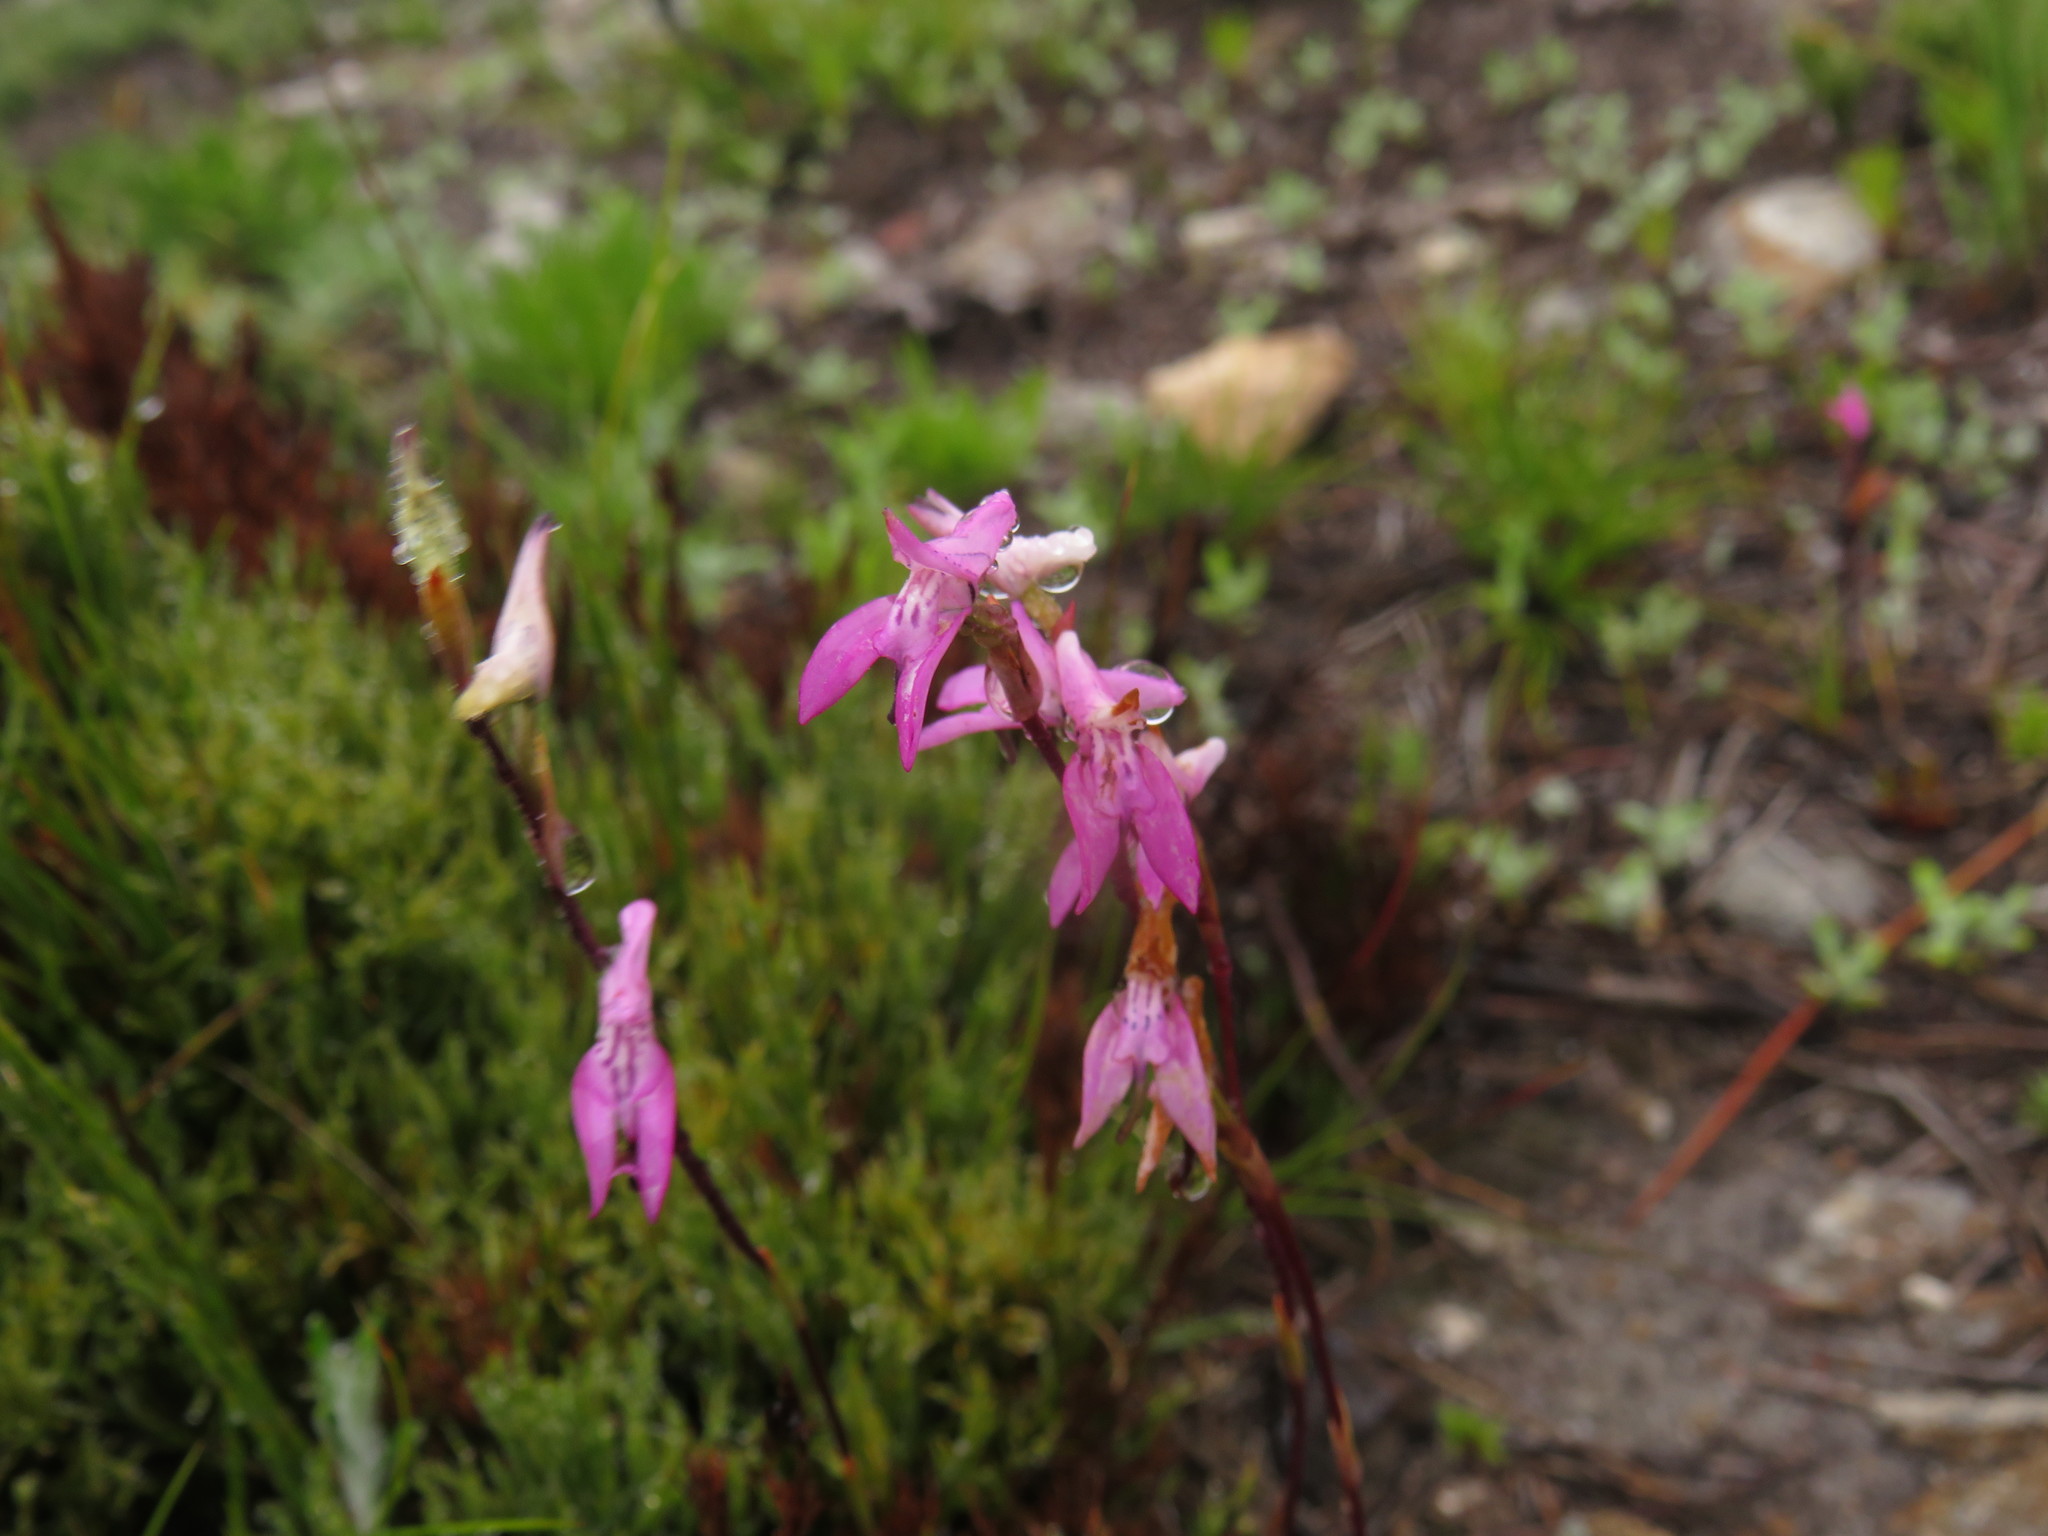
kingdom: Plantae
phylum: Tracheophyta
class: Liliopsida
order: Asparagales
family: Orchidaceae
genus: Disa
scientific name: Disa inflexa
